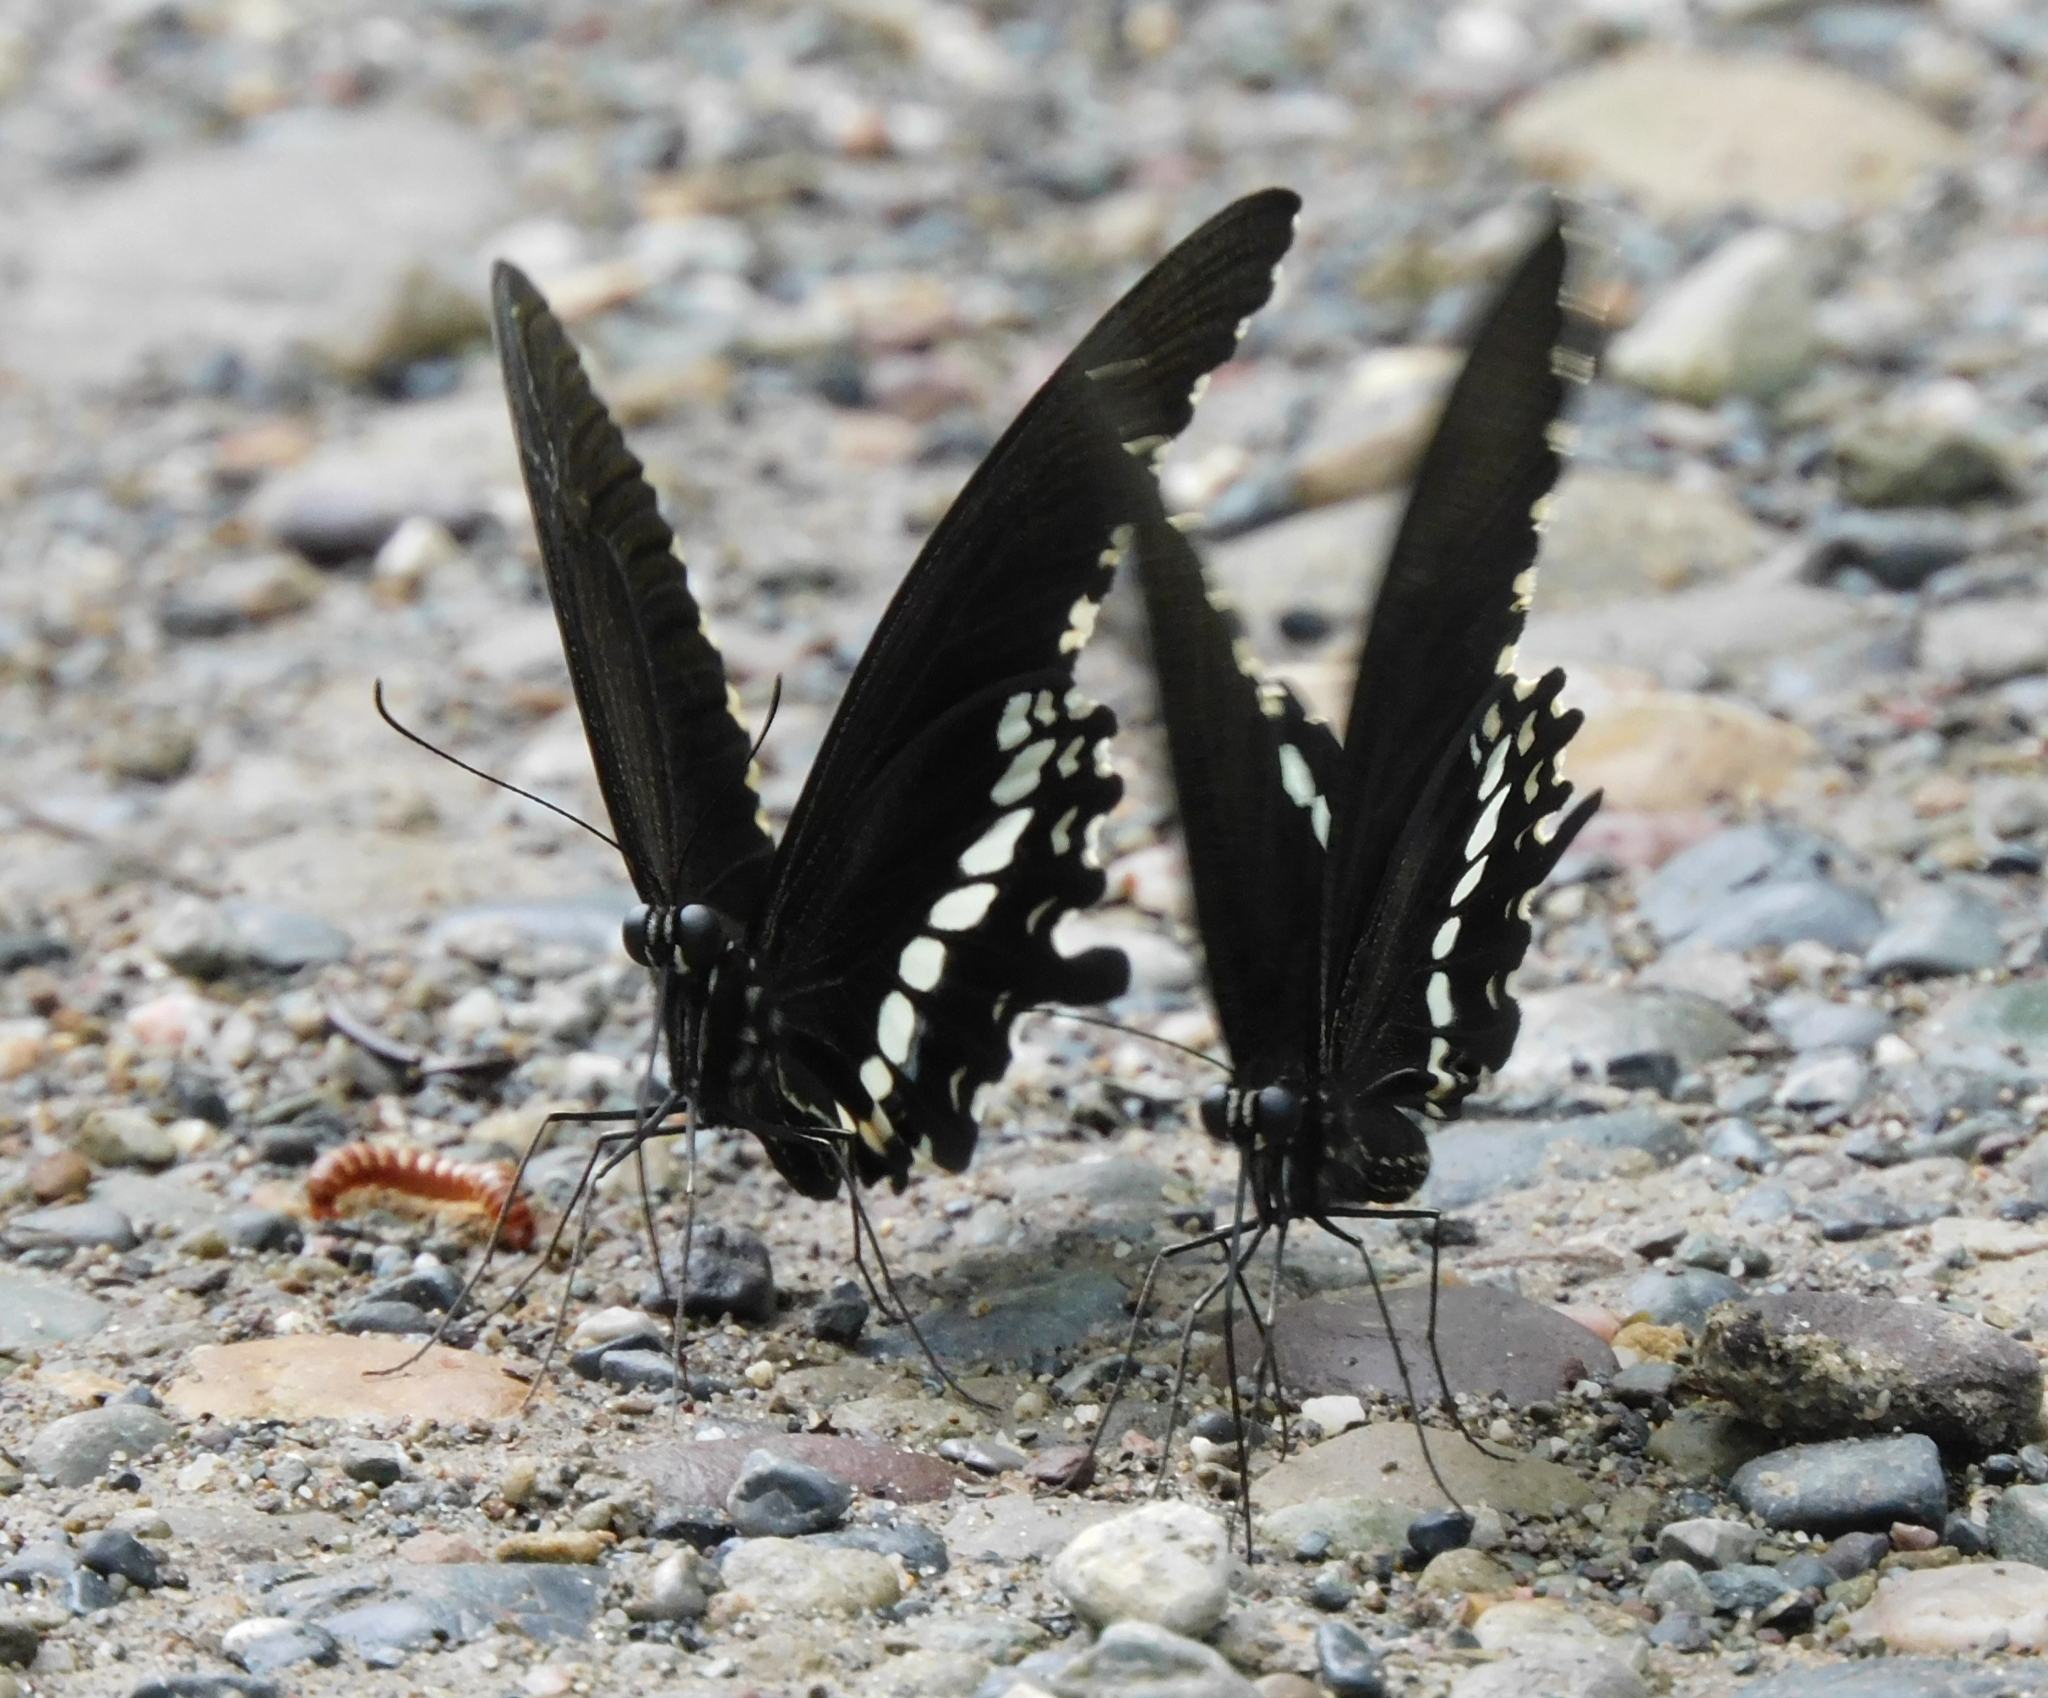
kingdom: Animalia
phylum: Arthropoda
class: Insecta
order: Lepidoptera
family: Papilionidae
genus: Papilio
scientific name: Papilio polytes
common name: Common mormon
